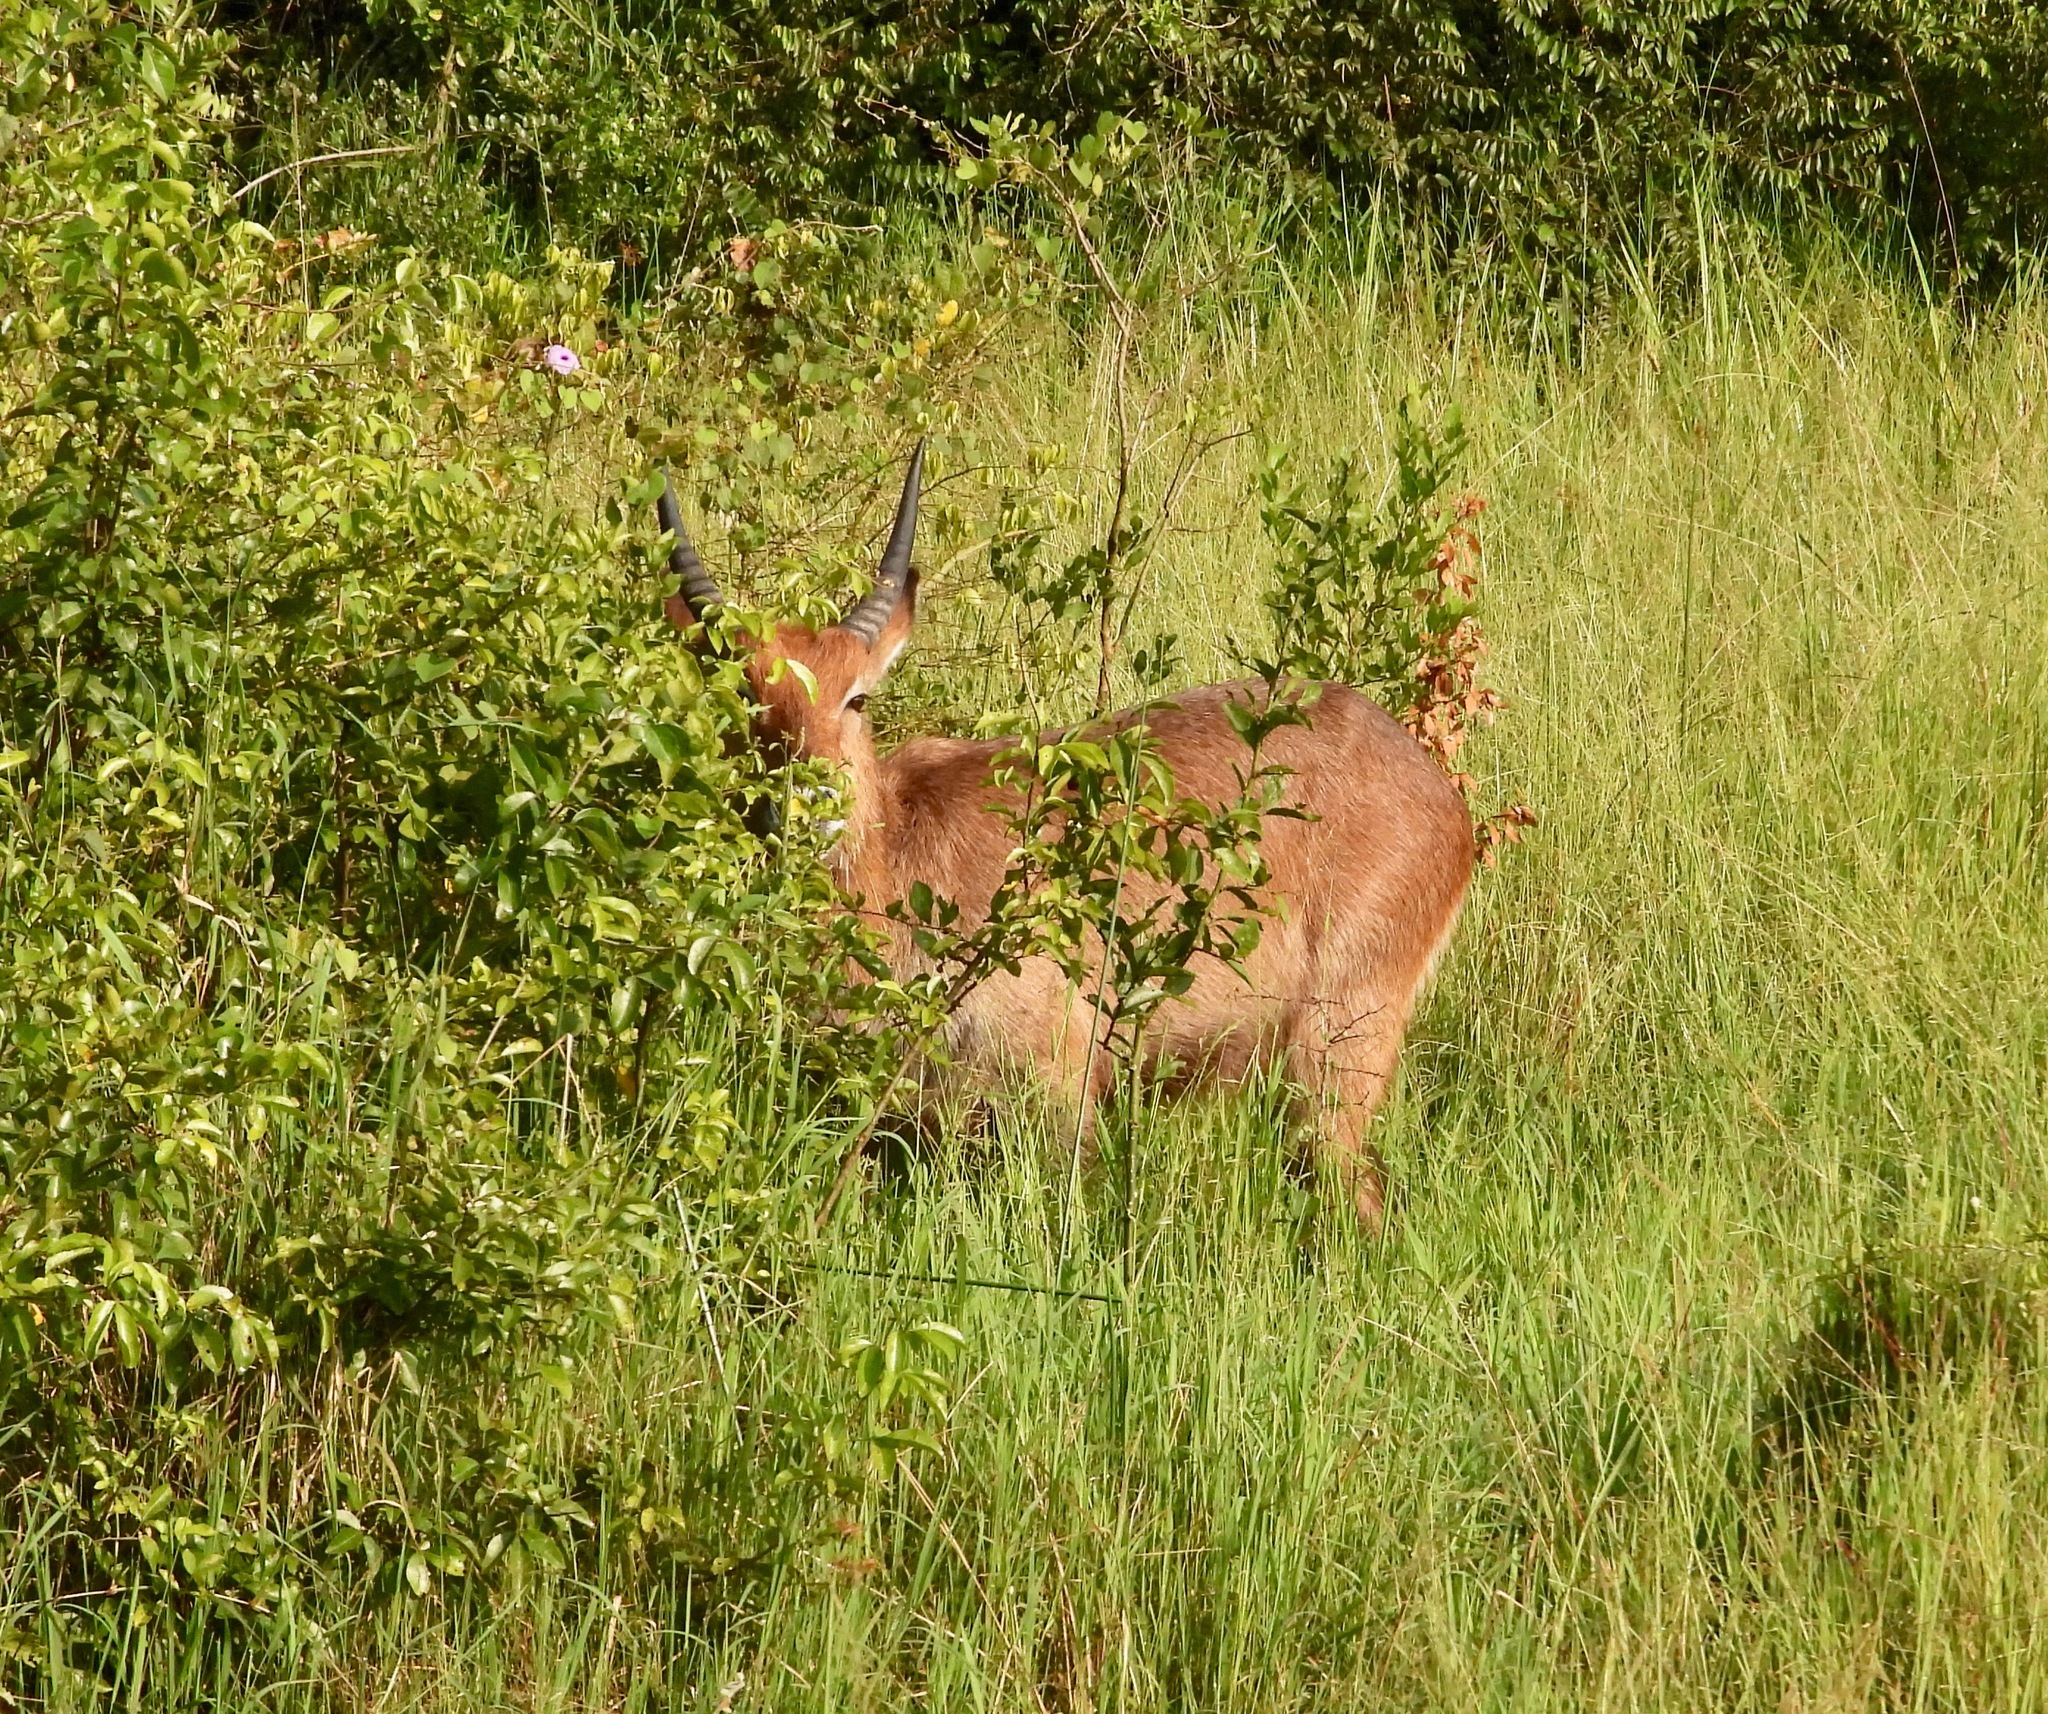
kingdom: Animalia
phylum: Chordata
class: Mammalia
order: Artiodactyla
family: Bovidae
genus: Kobus
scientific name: Kobus ellipsiprymnus
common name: Waterbuck
